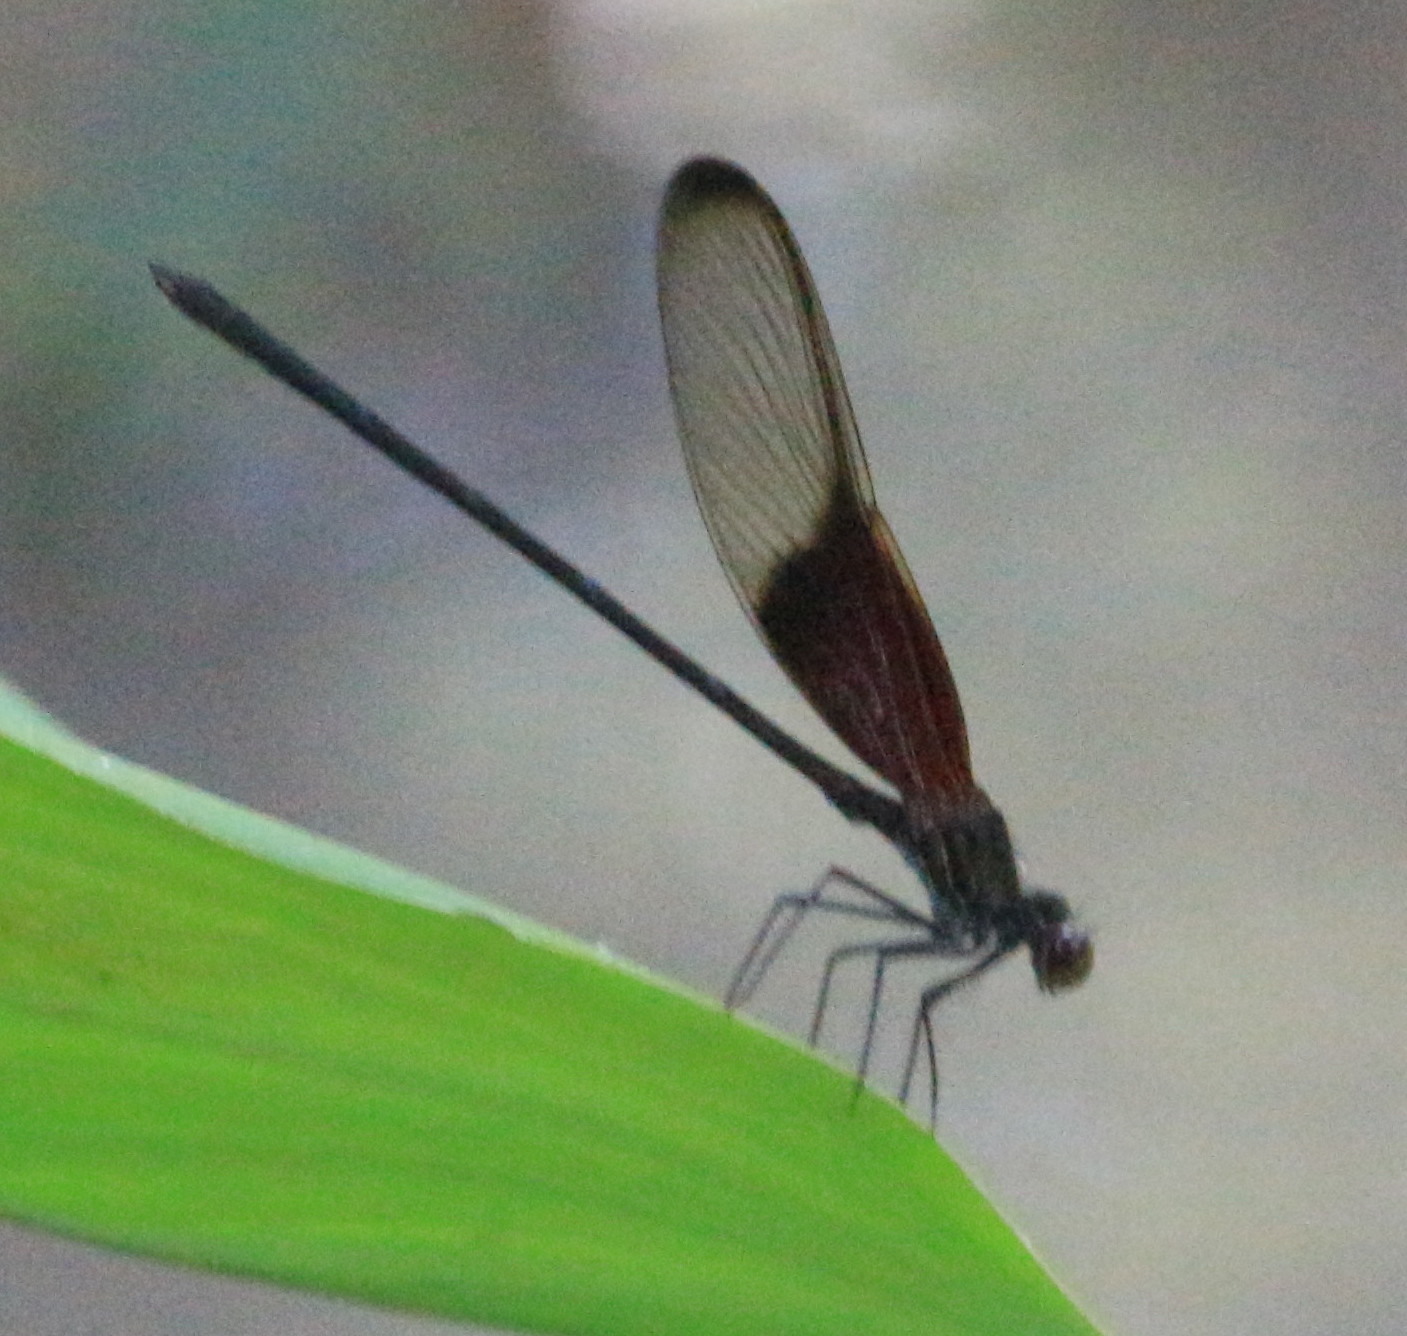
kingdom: Animalia
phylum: Arthropoda
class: Insecta
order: Odonata
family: Calopterygidae
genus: Hetaerina
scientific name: Hetaerina titia
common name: Smoky rubyspot
